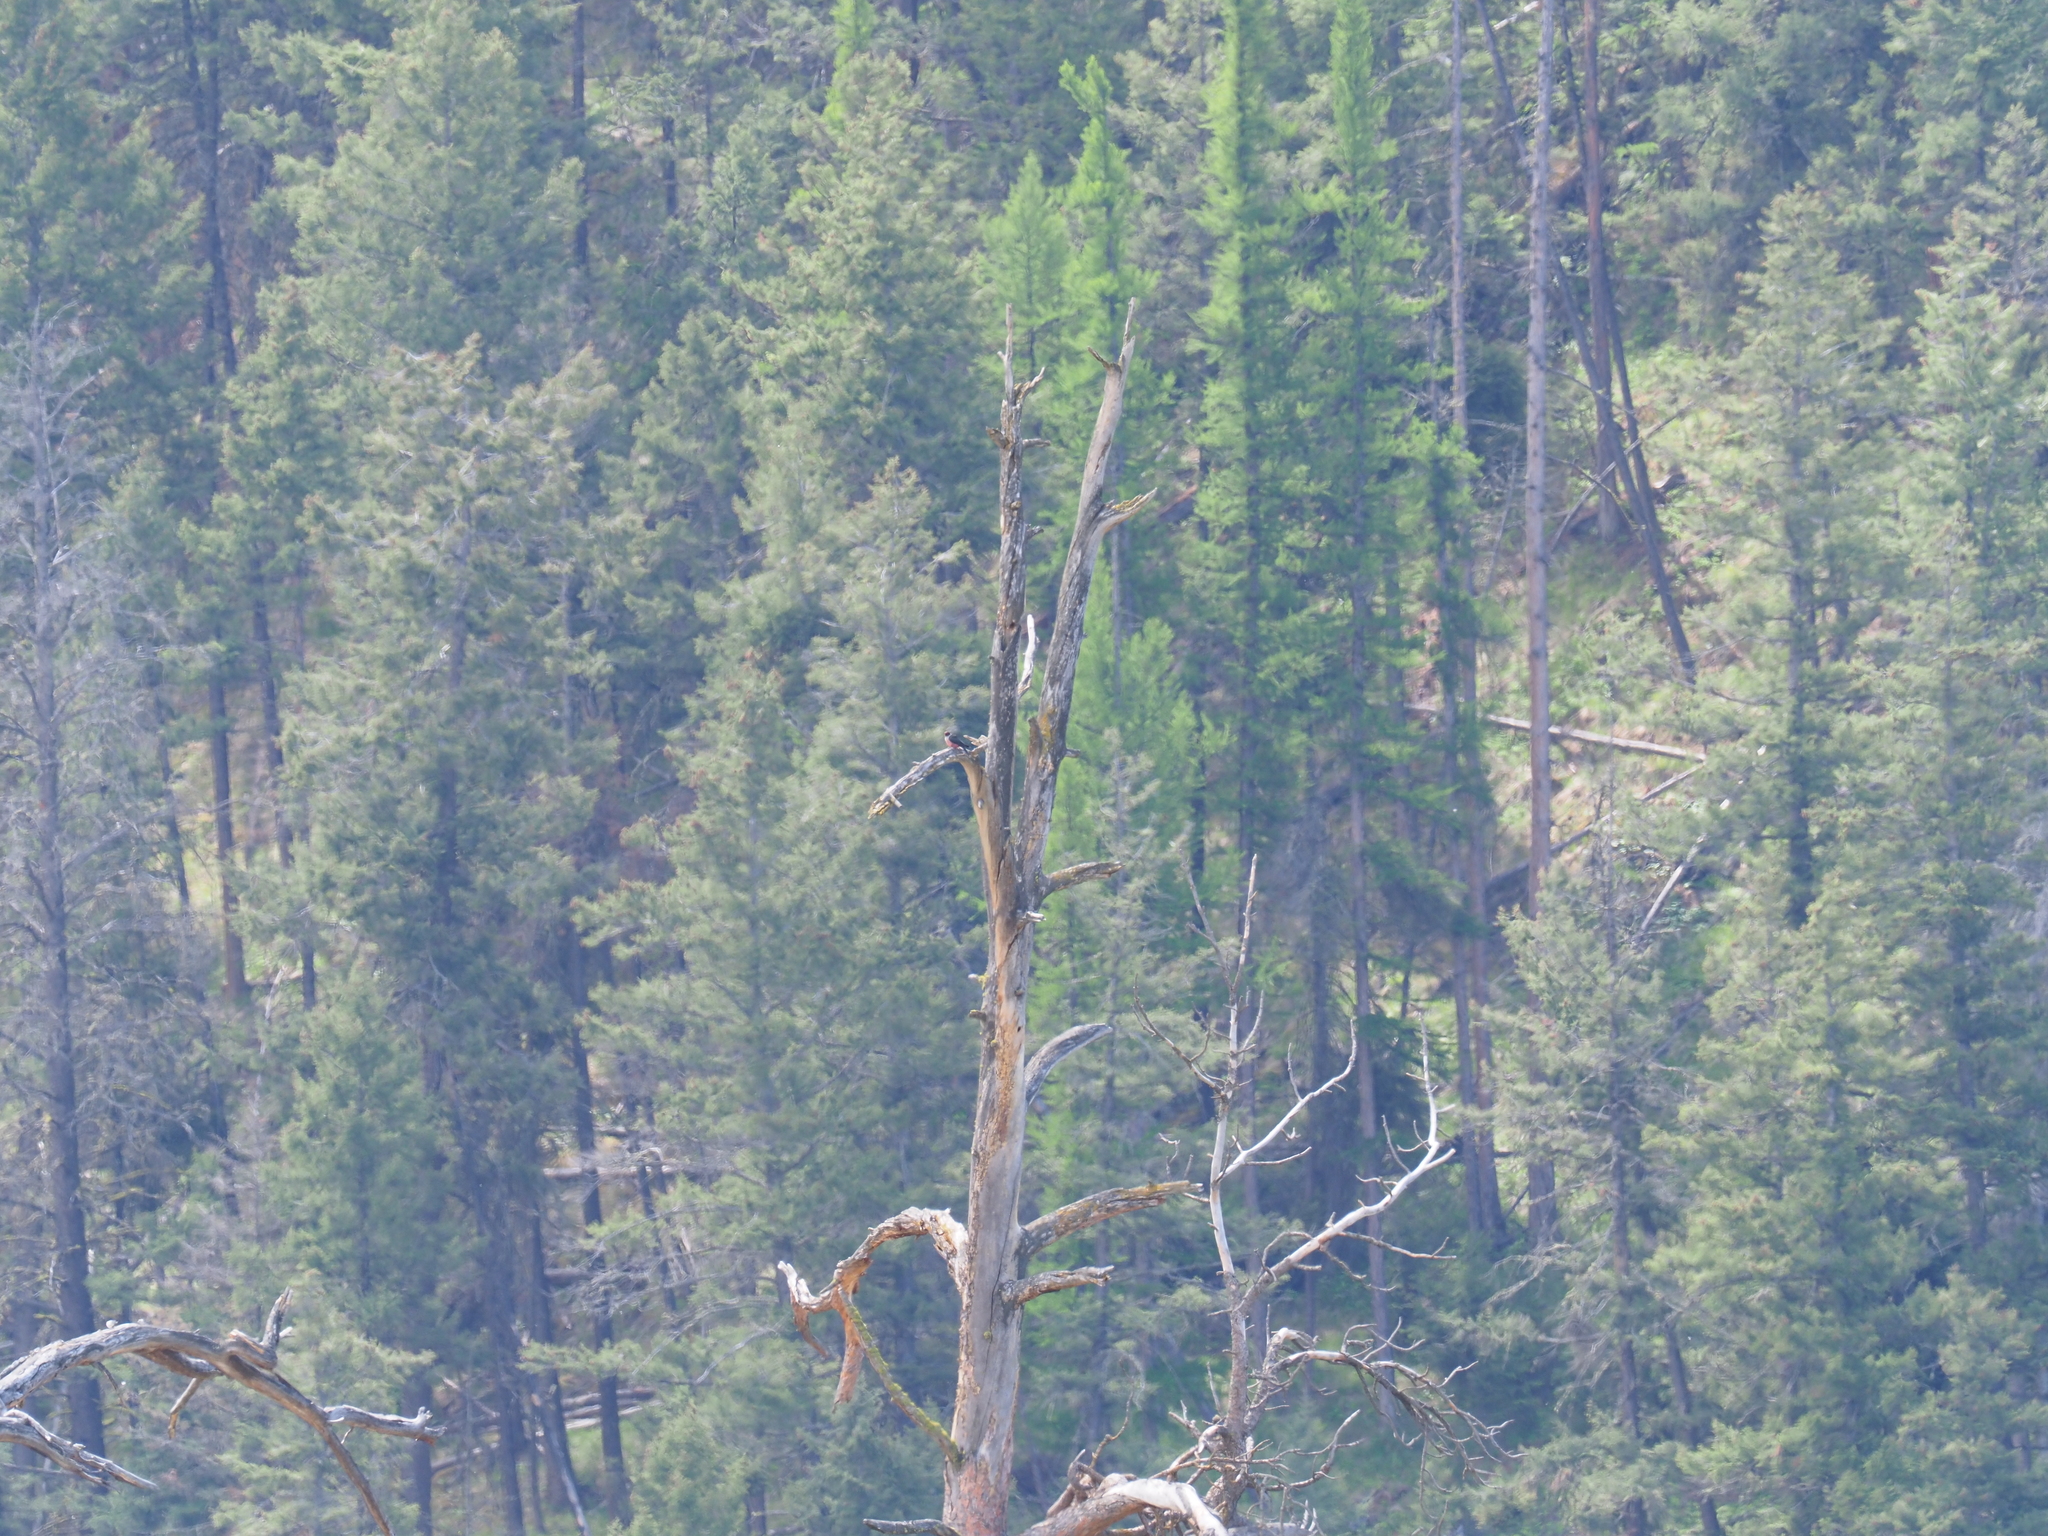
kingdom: Animalia
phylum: Chordata
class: Aves
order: Piciformes
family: Picidae
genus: Melanerpes
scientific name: Melanerpes lewis
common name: Lewis's woodpecker
